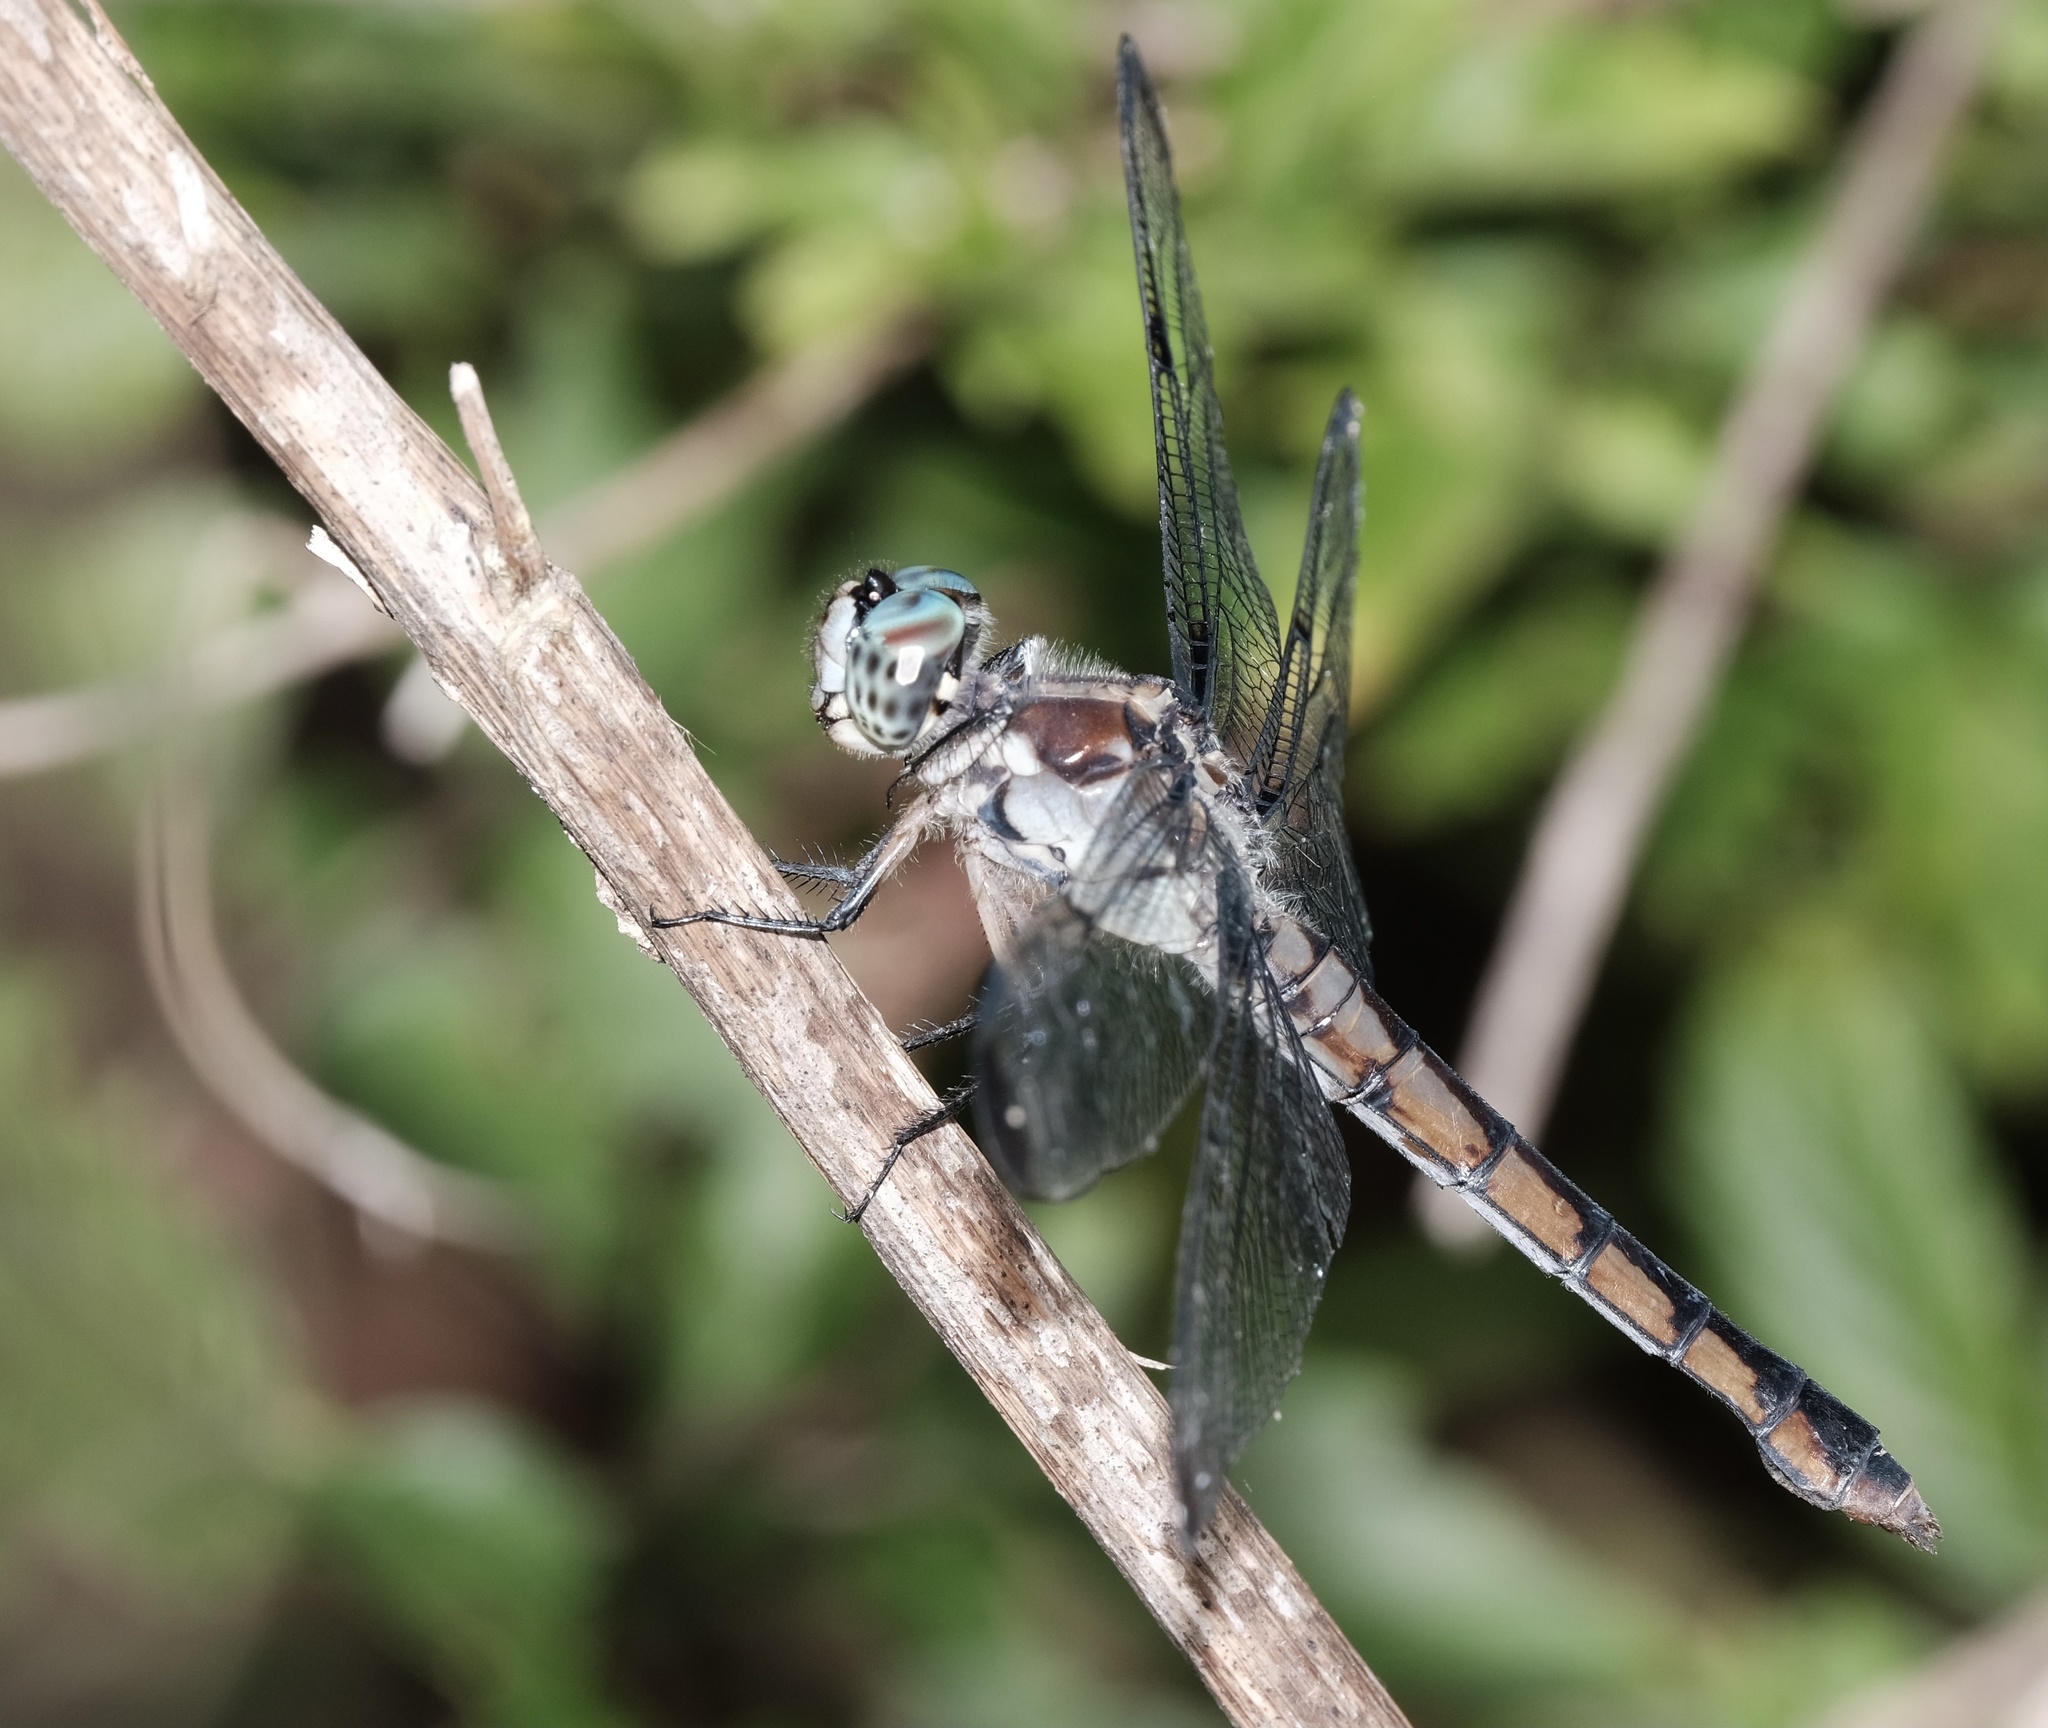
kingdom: Animalia
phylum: Arthropoda
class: Insecta
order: Odonata
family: Libellulidae
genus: Libellula
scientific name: Libellula vibrans
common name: Great blue skimmer
